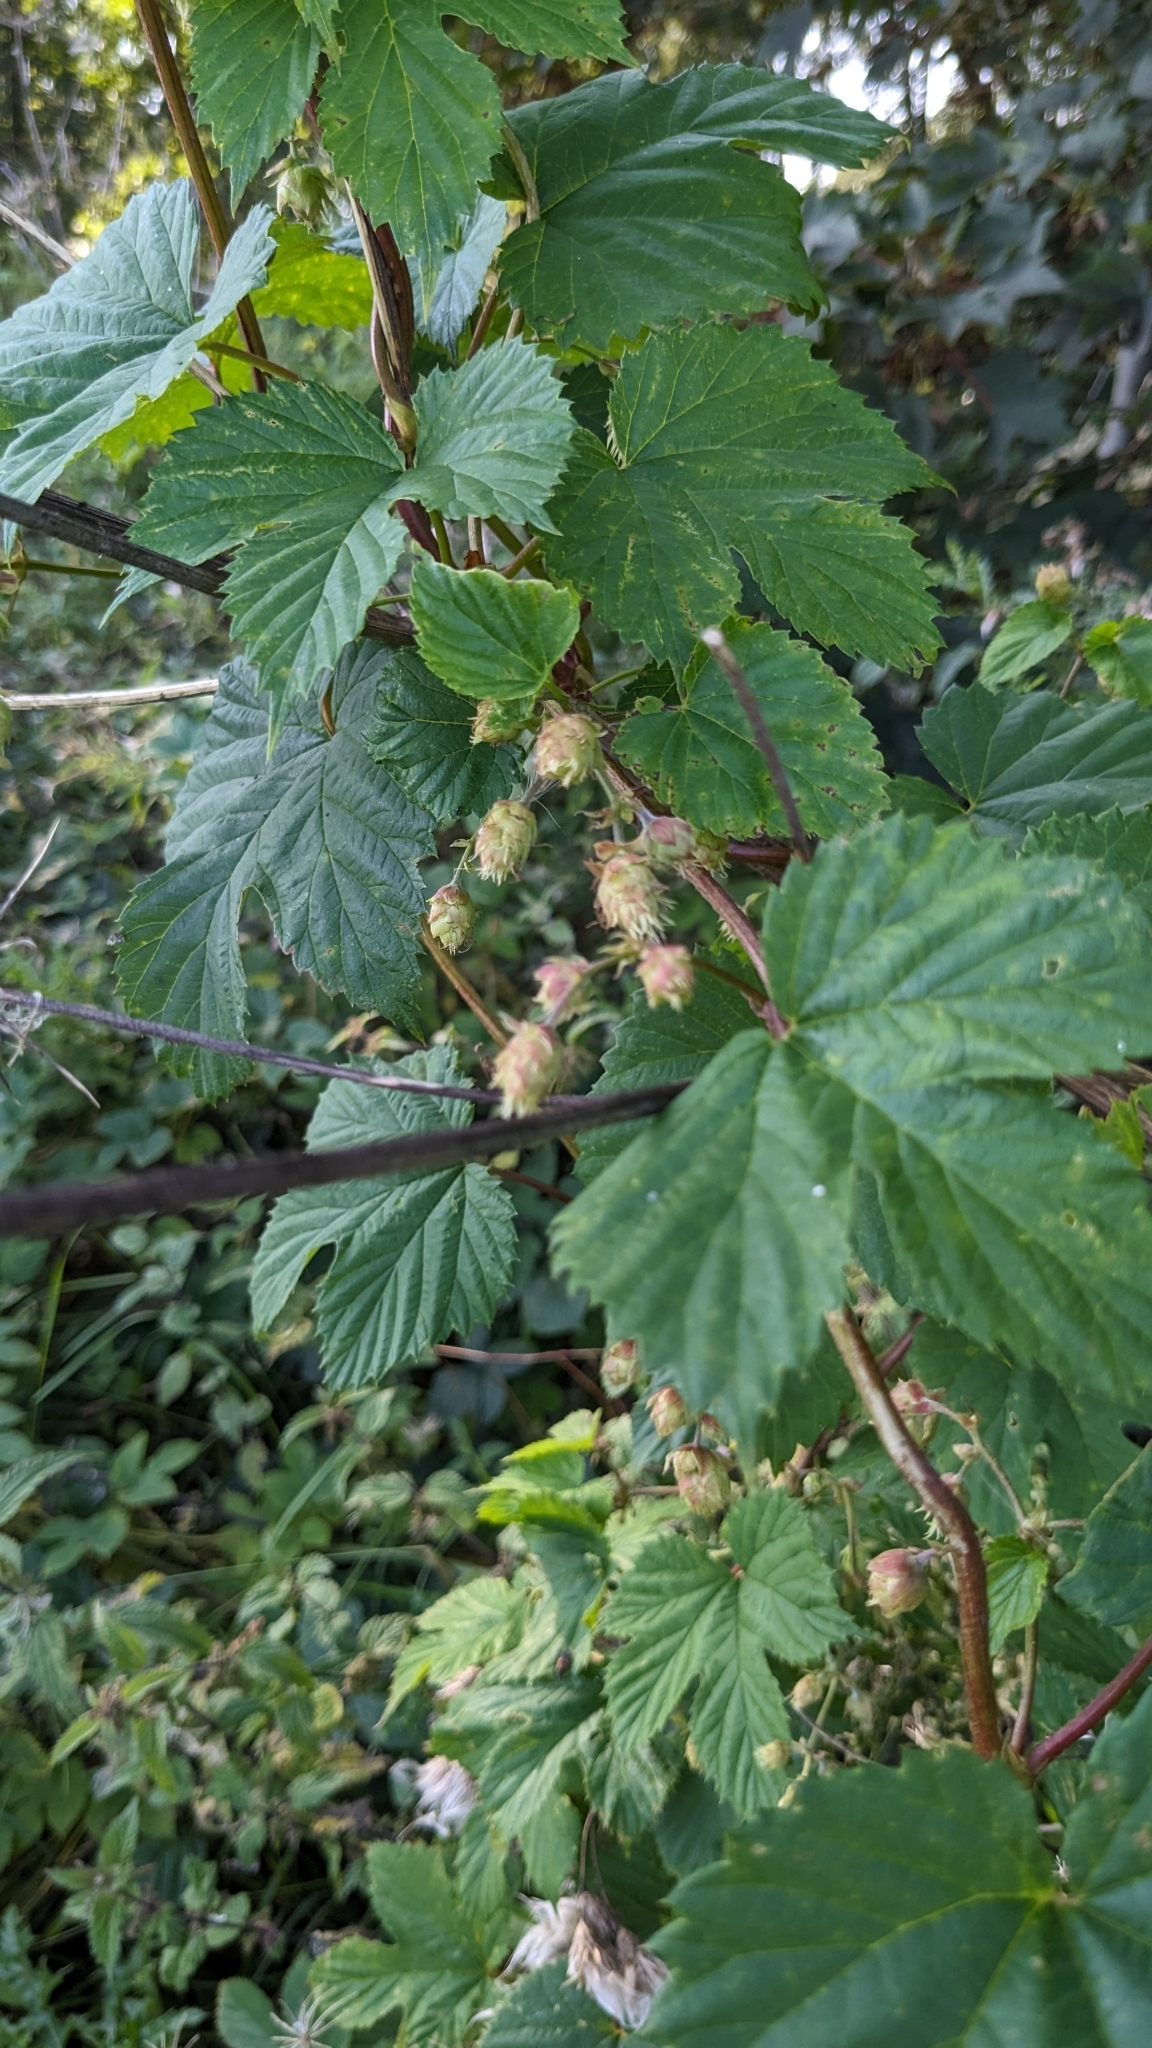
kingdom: Plantae
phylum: Tracheophyta
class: Magnoliopsida
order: Rosales
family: Cannabaceae
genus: Humulus
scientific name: Humulus lupulus
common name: Hop
